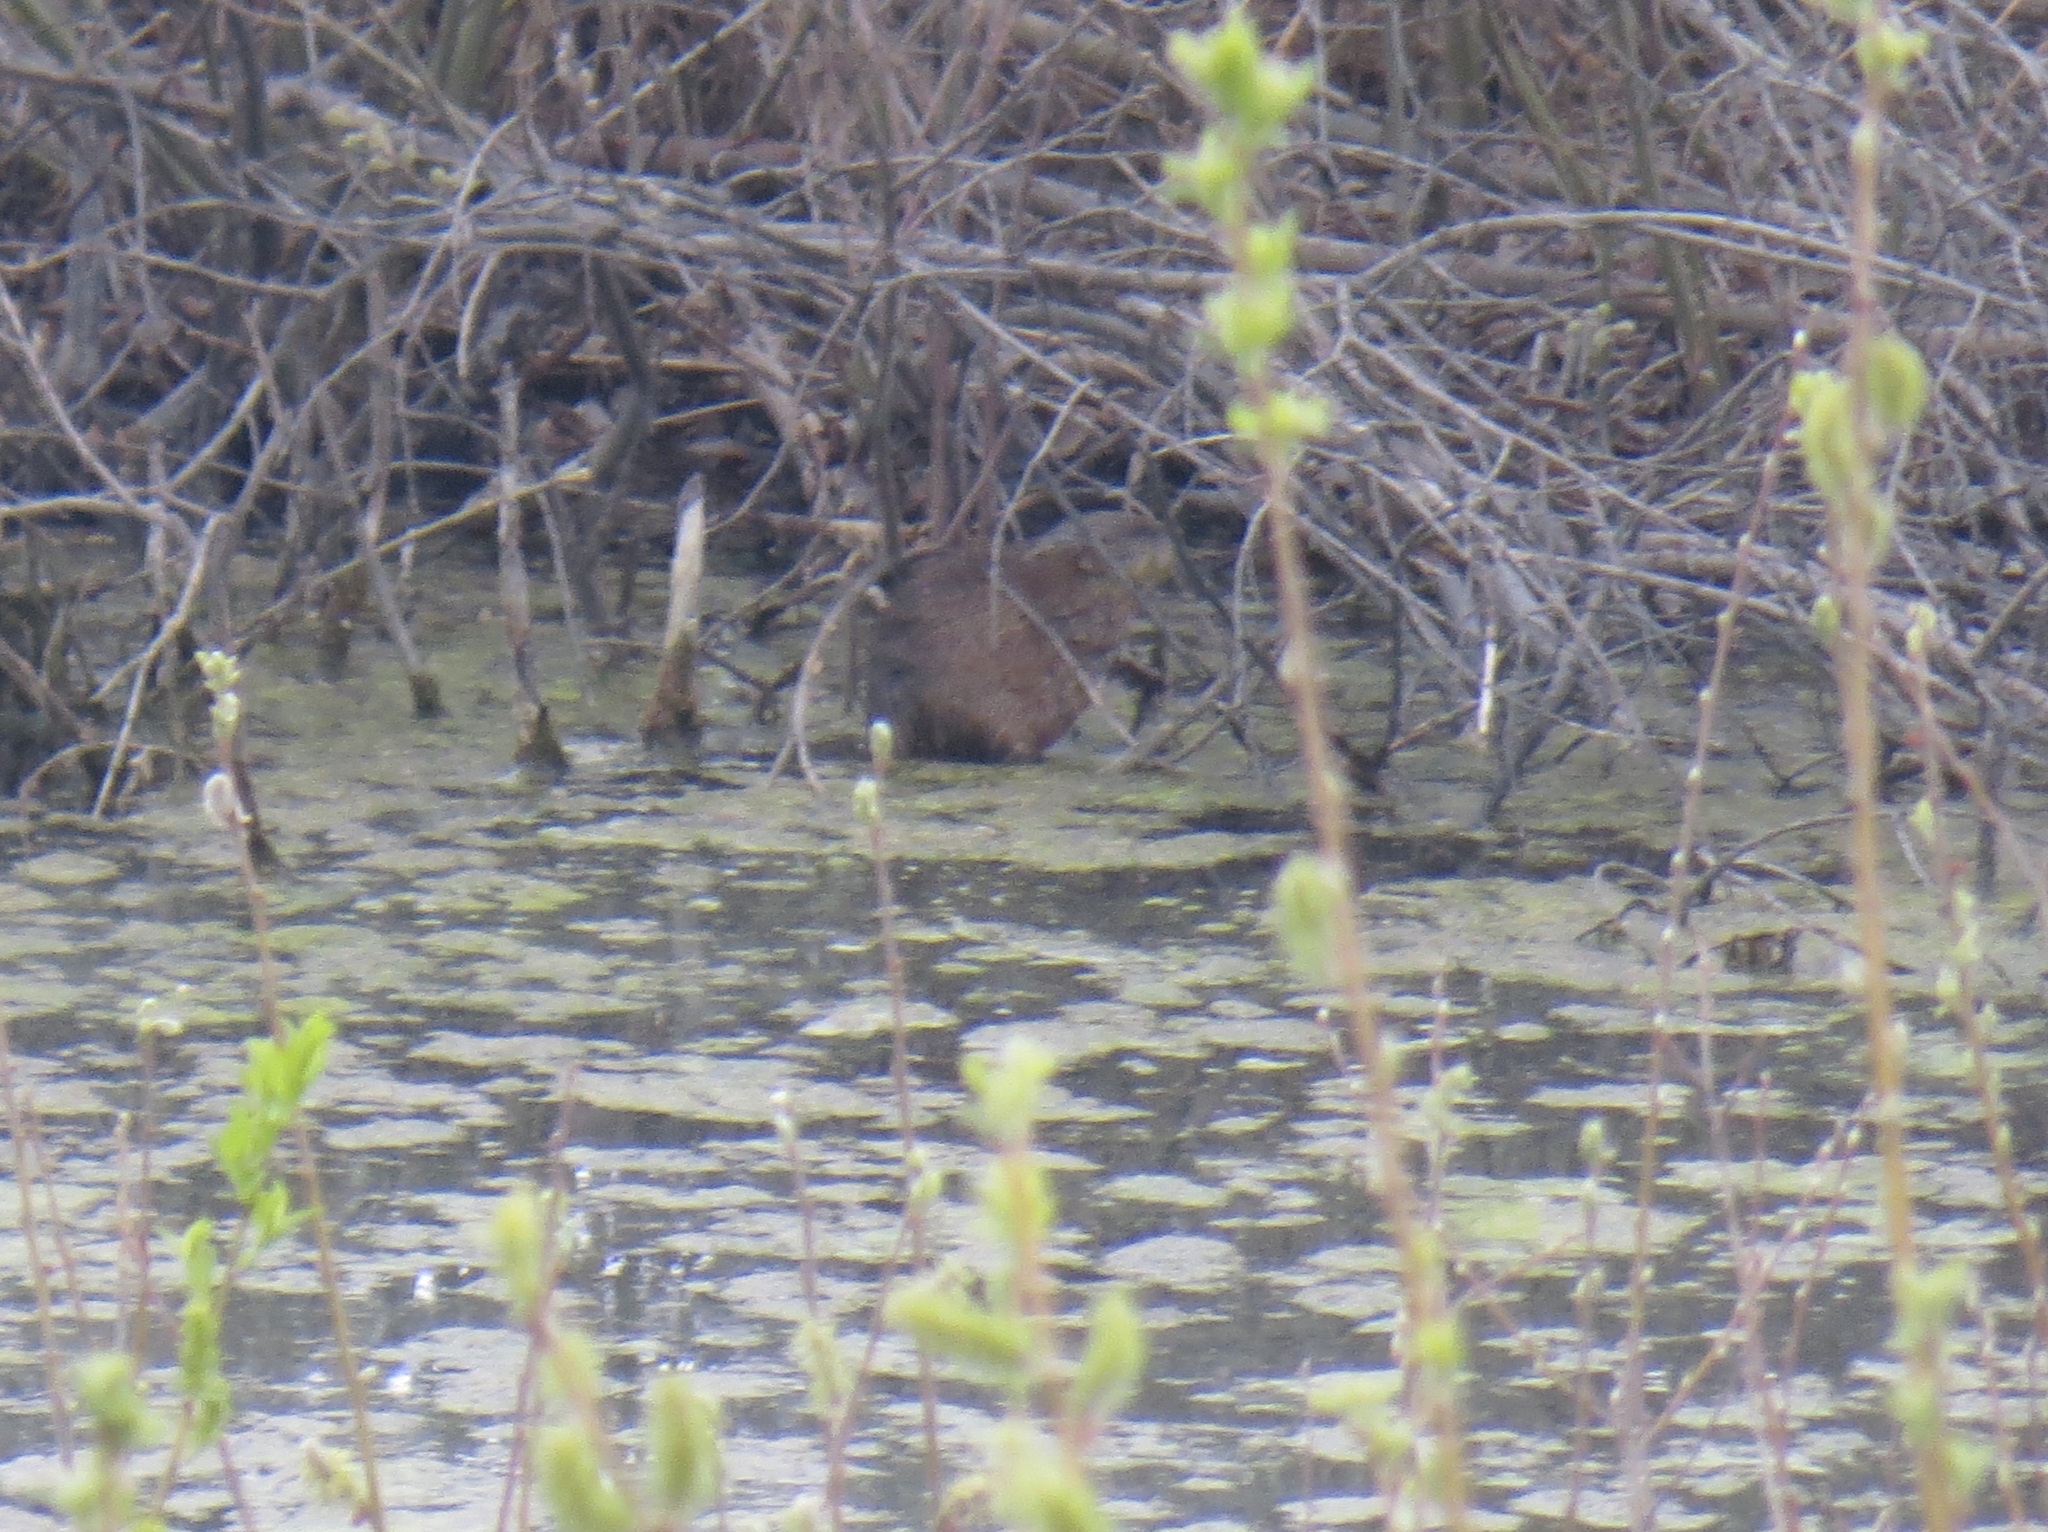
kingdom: Animalia
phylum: Chordata
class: Mammalia
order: Rodentia
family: Cricetidae
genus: Ondatra
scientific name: Ondatra zibethicus
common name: Muskrat
